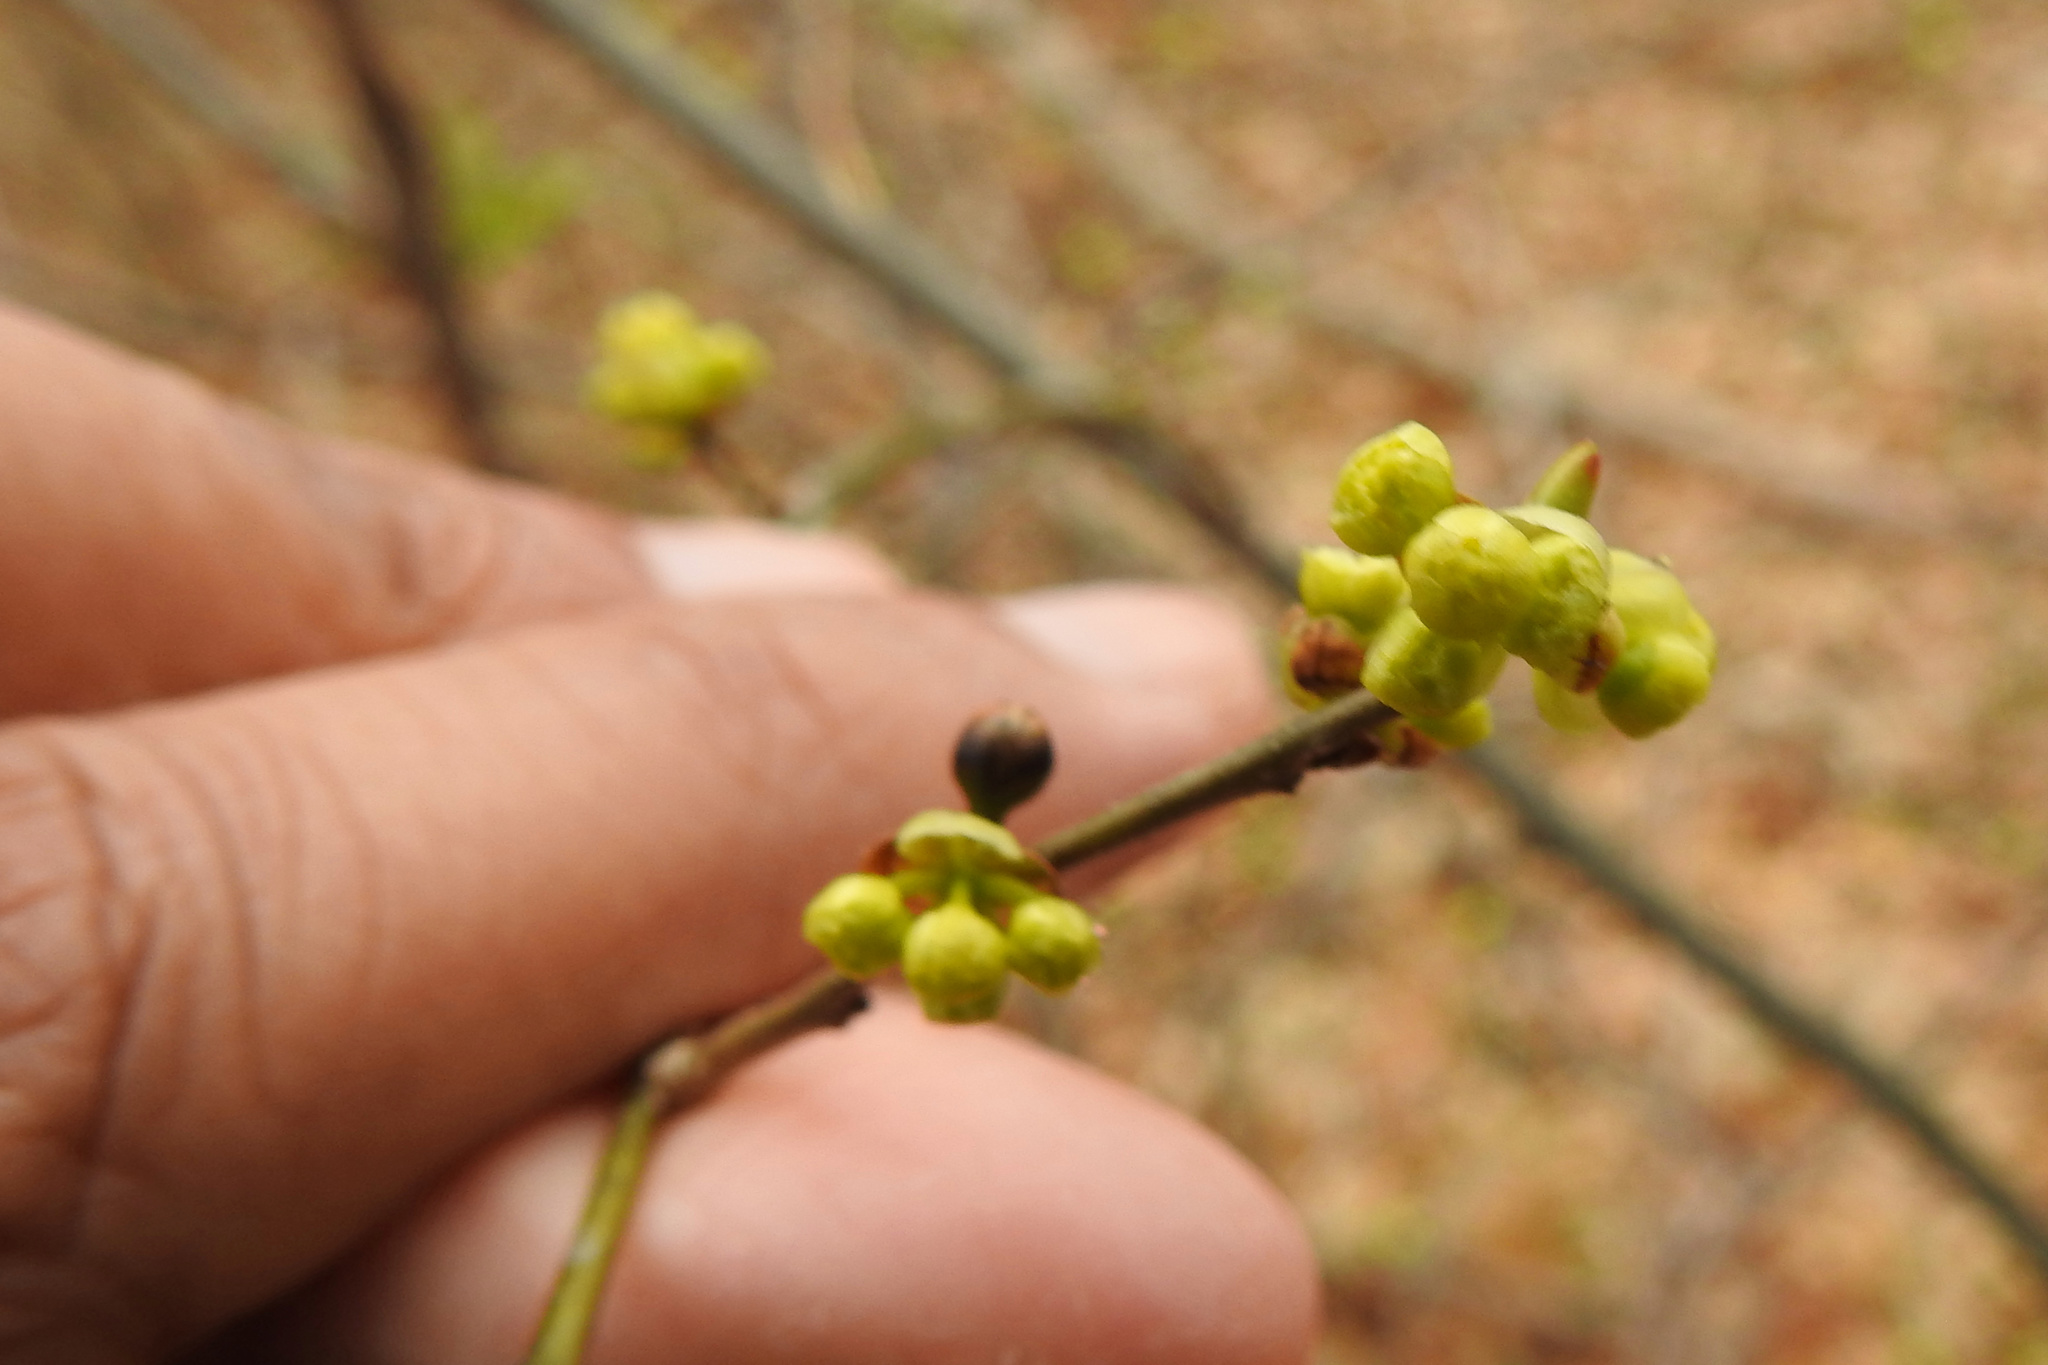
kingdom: Plantae
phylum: Tracheophyta
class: Magnoliopsida
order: Laurales
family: Lauraceae
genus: Lindera
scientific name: Lindera benzoin
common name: Spicebush
